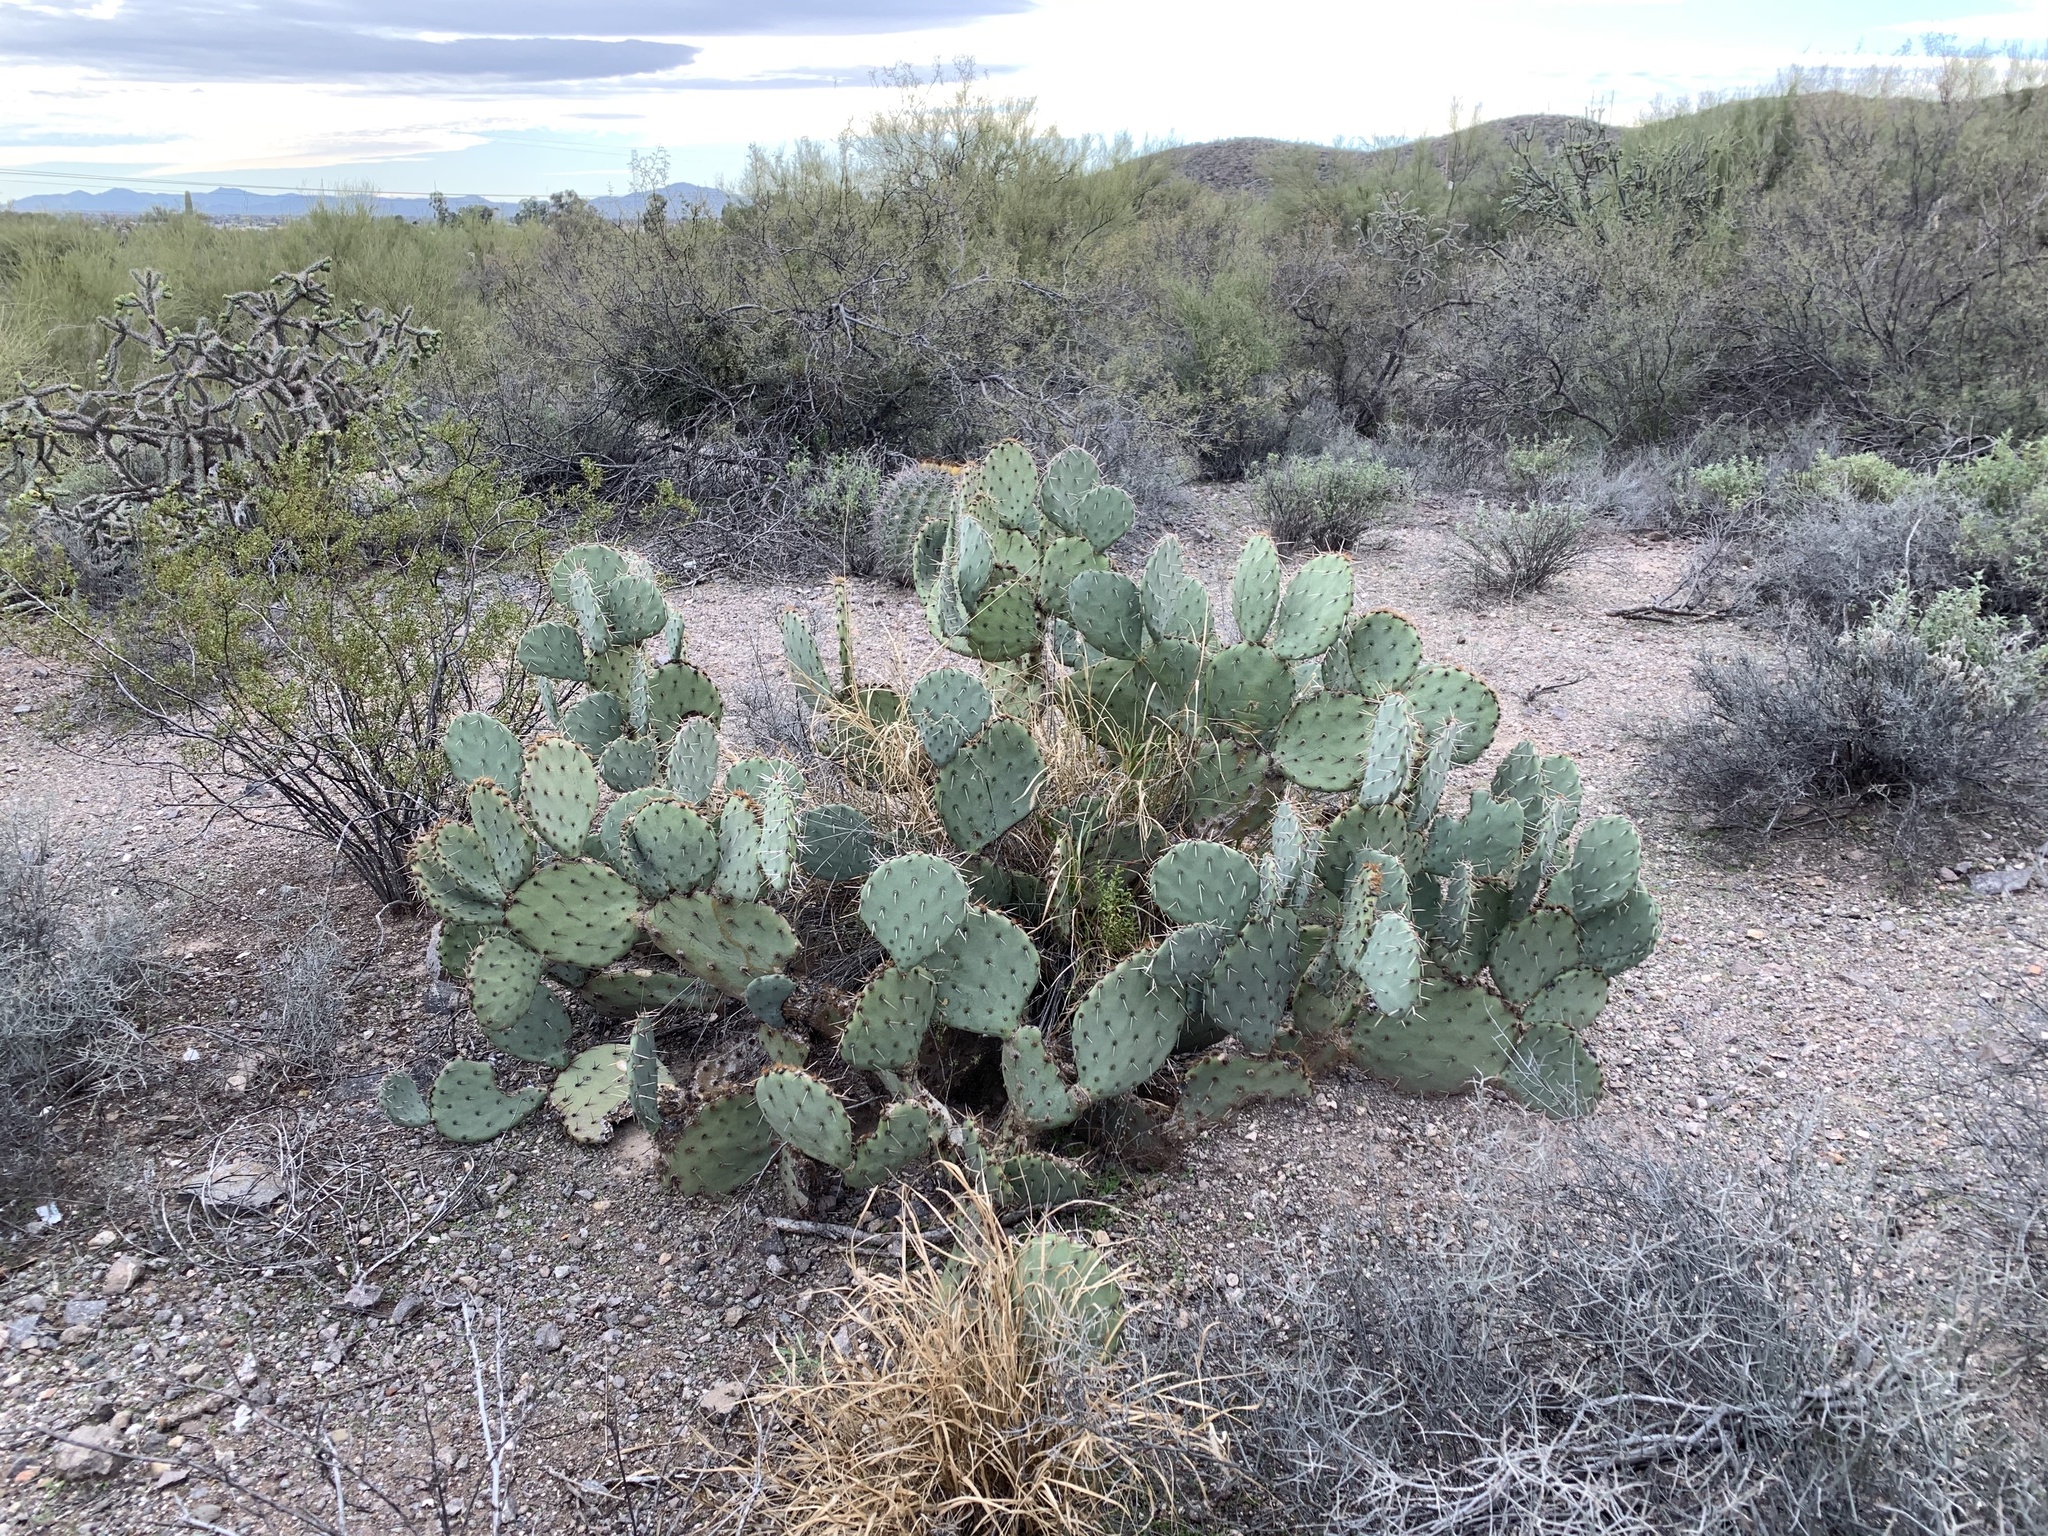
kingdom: Plantae
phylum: Tracheophyta
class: Magnoliopsida
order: Caryophyllales
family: Cactaceae
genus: Opuntia
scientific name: Opuntia engelmannii
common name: Cactus-apple
